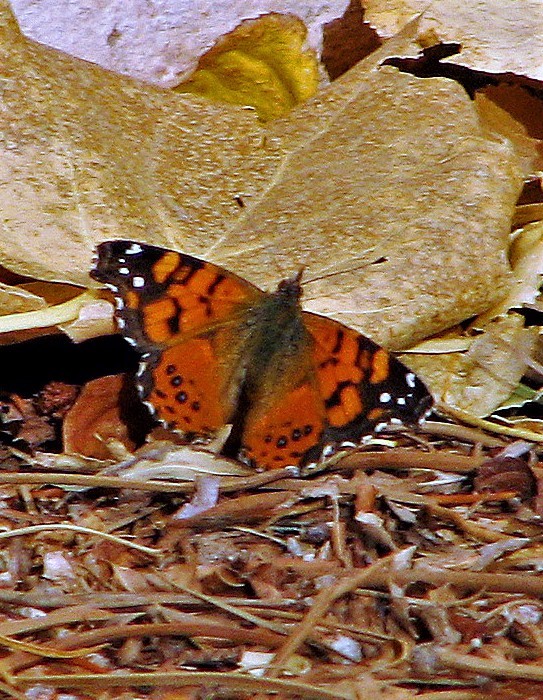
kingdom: Animalia
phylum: Arthropoda
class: Insecta
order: Lepidoptera
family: Nymphalidae
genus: Vanessa
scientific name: Vanessa carye
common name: Subtropical lady
